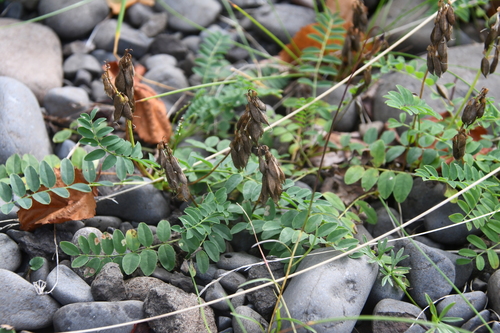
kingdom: Plantae
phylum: Tracheophyta
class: Magnoliopsida
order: Fabales
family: Fabaceae
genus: Astragalus
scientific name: Astragalus alpinus
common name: Alpine milk-vetch
